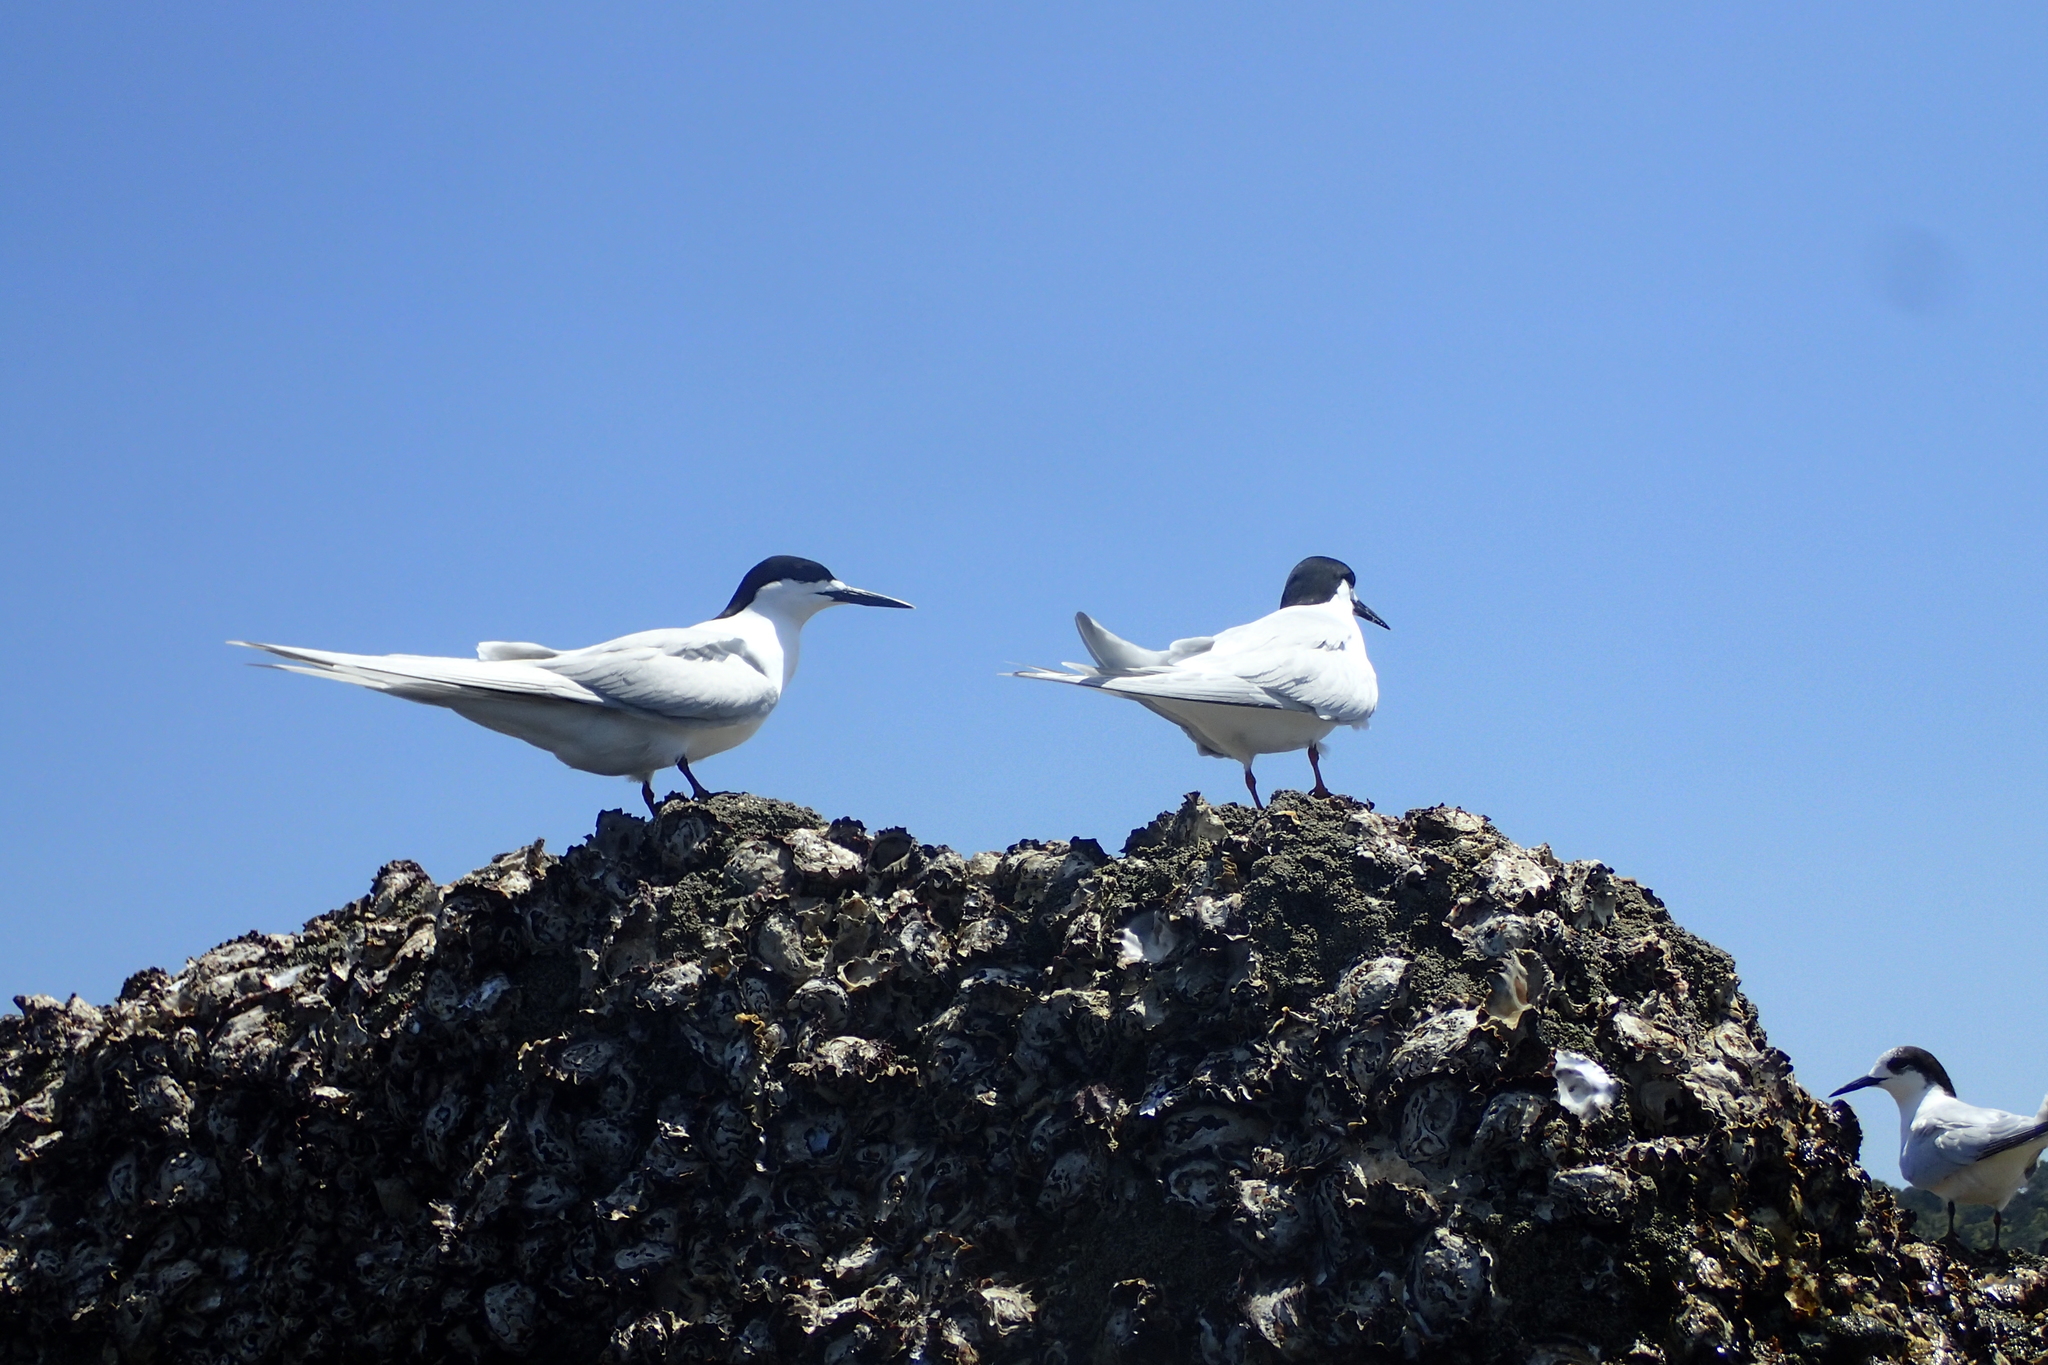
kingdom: Animalia
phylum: Chordata
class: Aves
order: Charadriiformes
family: Laridae
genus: Sterna
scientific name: Sterna striata
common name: White-fronted tern
